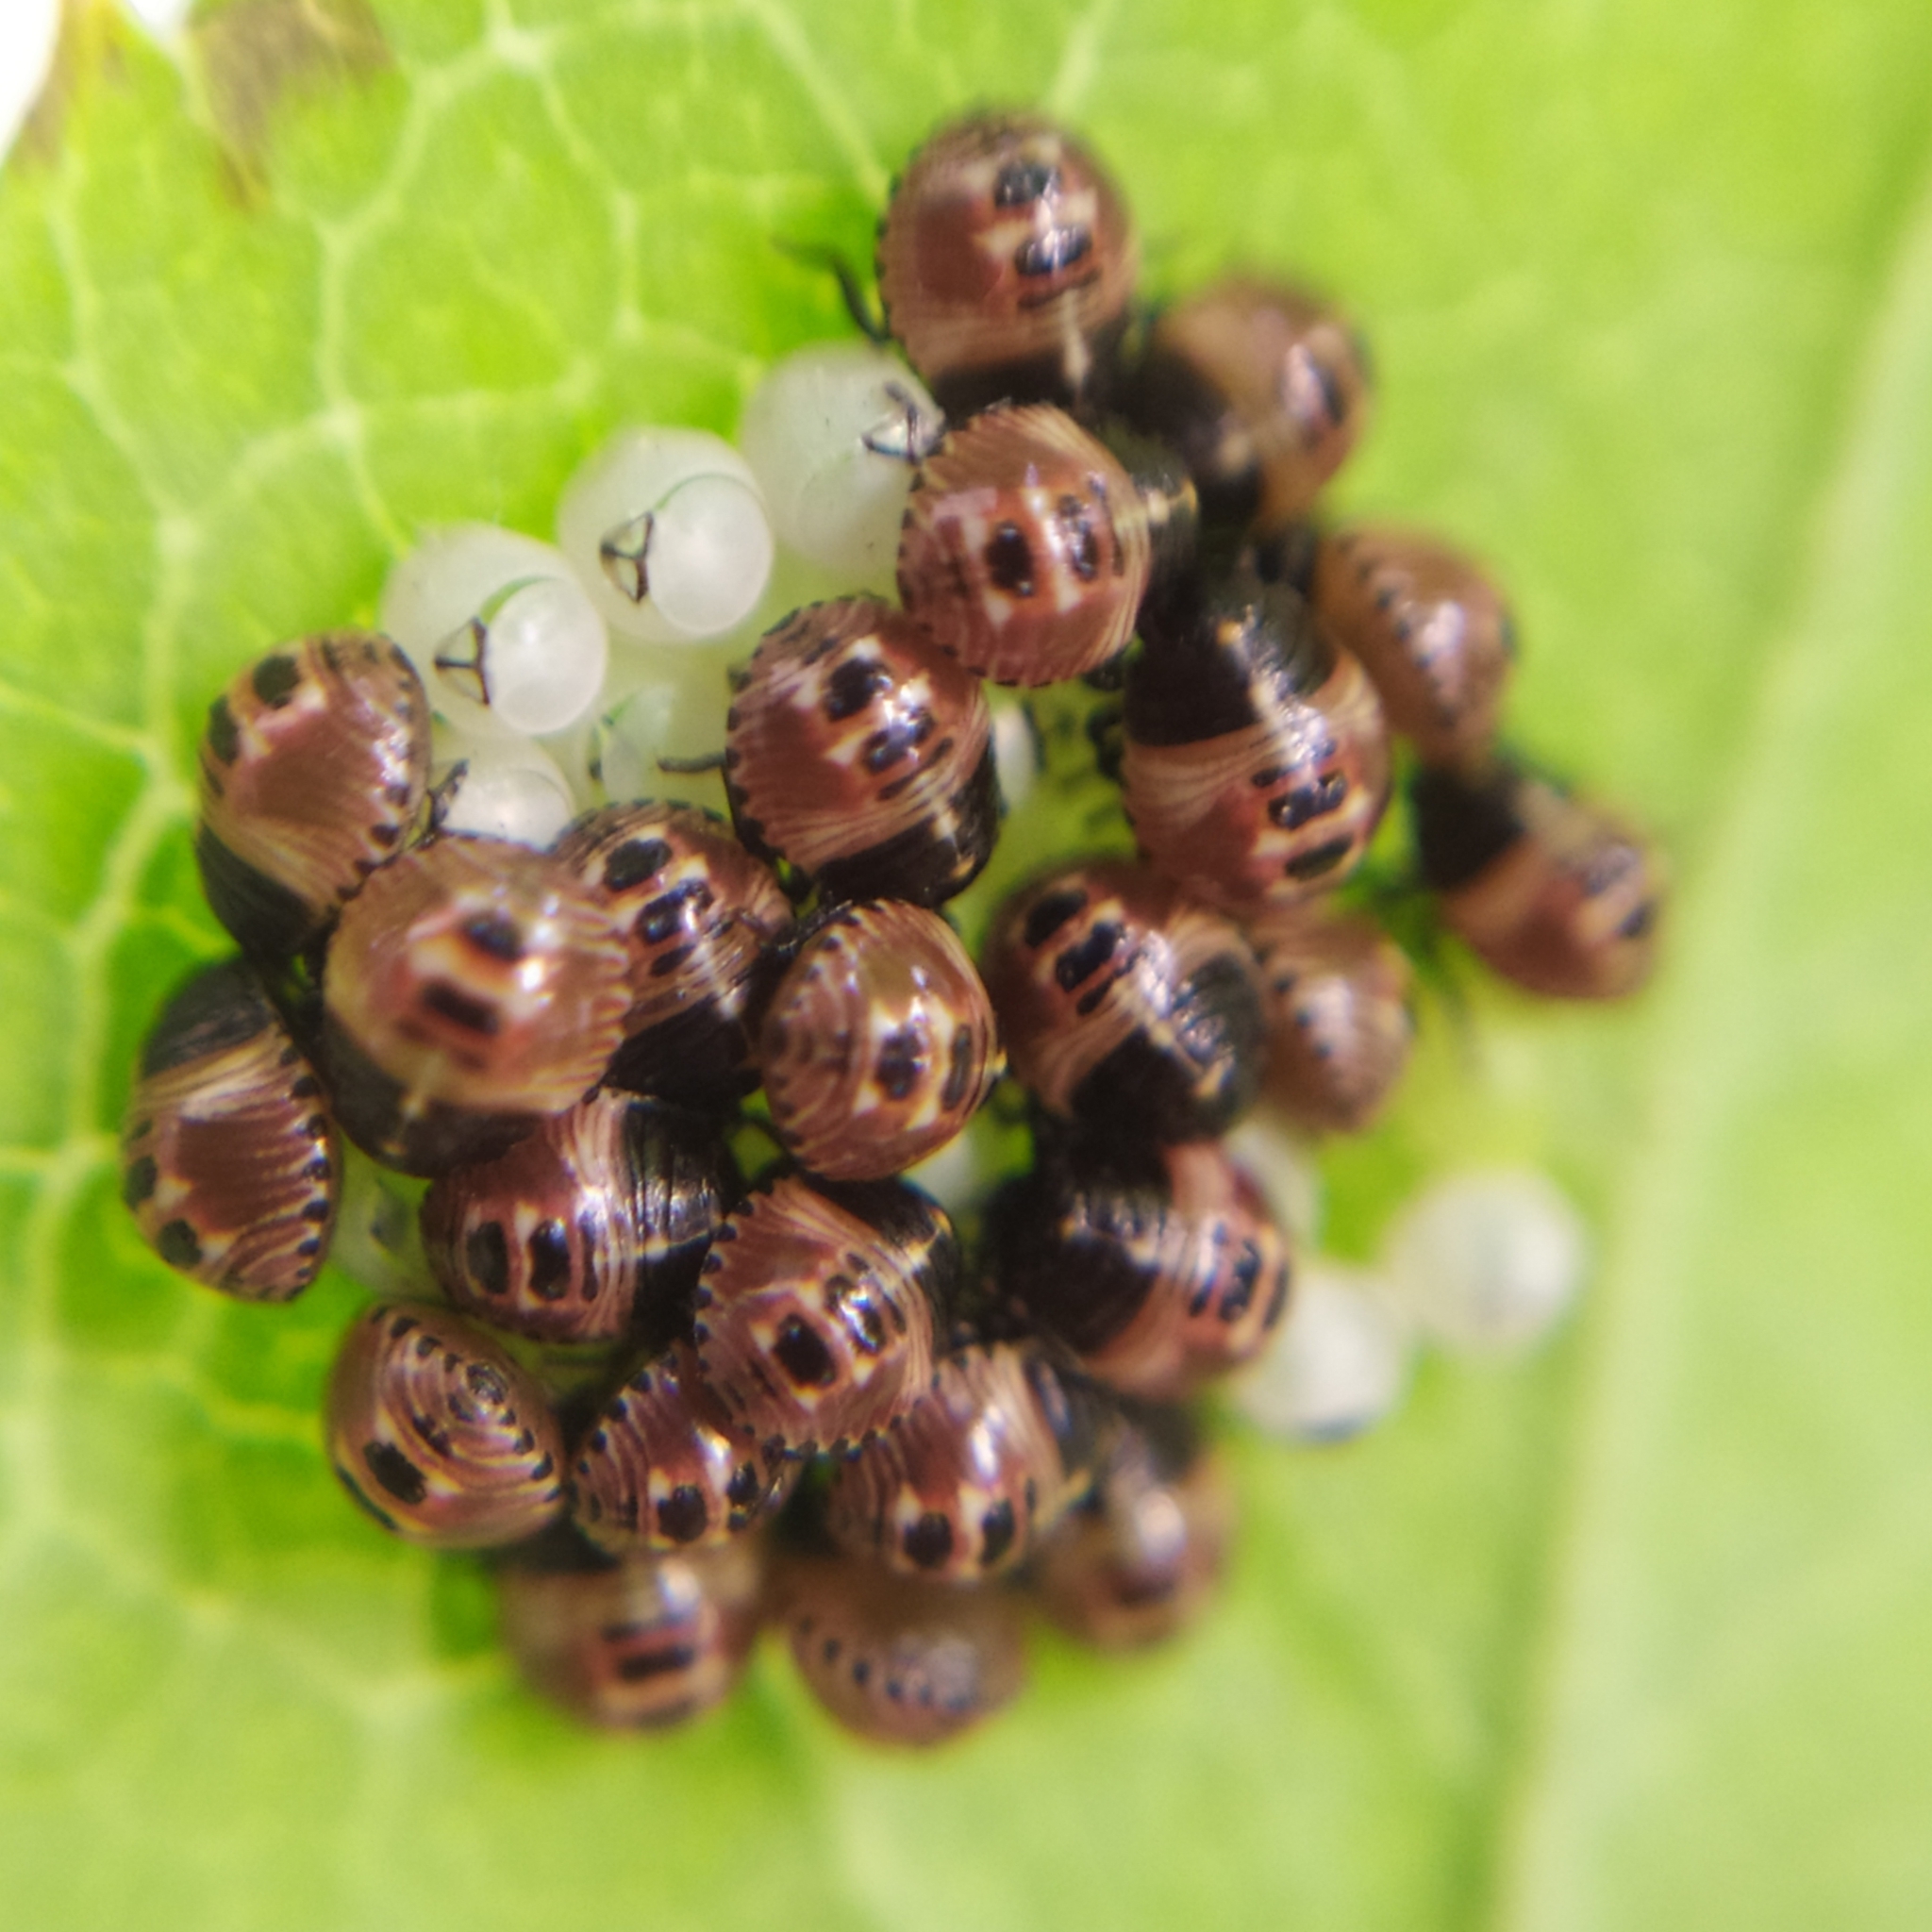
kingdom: Animalia
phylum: Arthropoda
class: Insecta
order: Hemiptera
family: Pentatomidae
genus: Palomena
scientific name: Palomena prasina
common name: Green shieldbug
